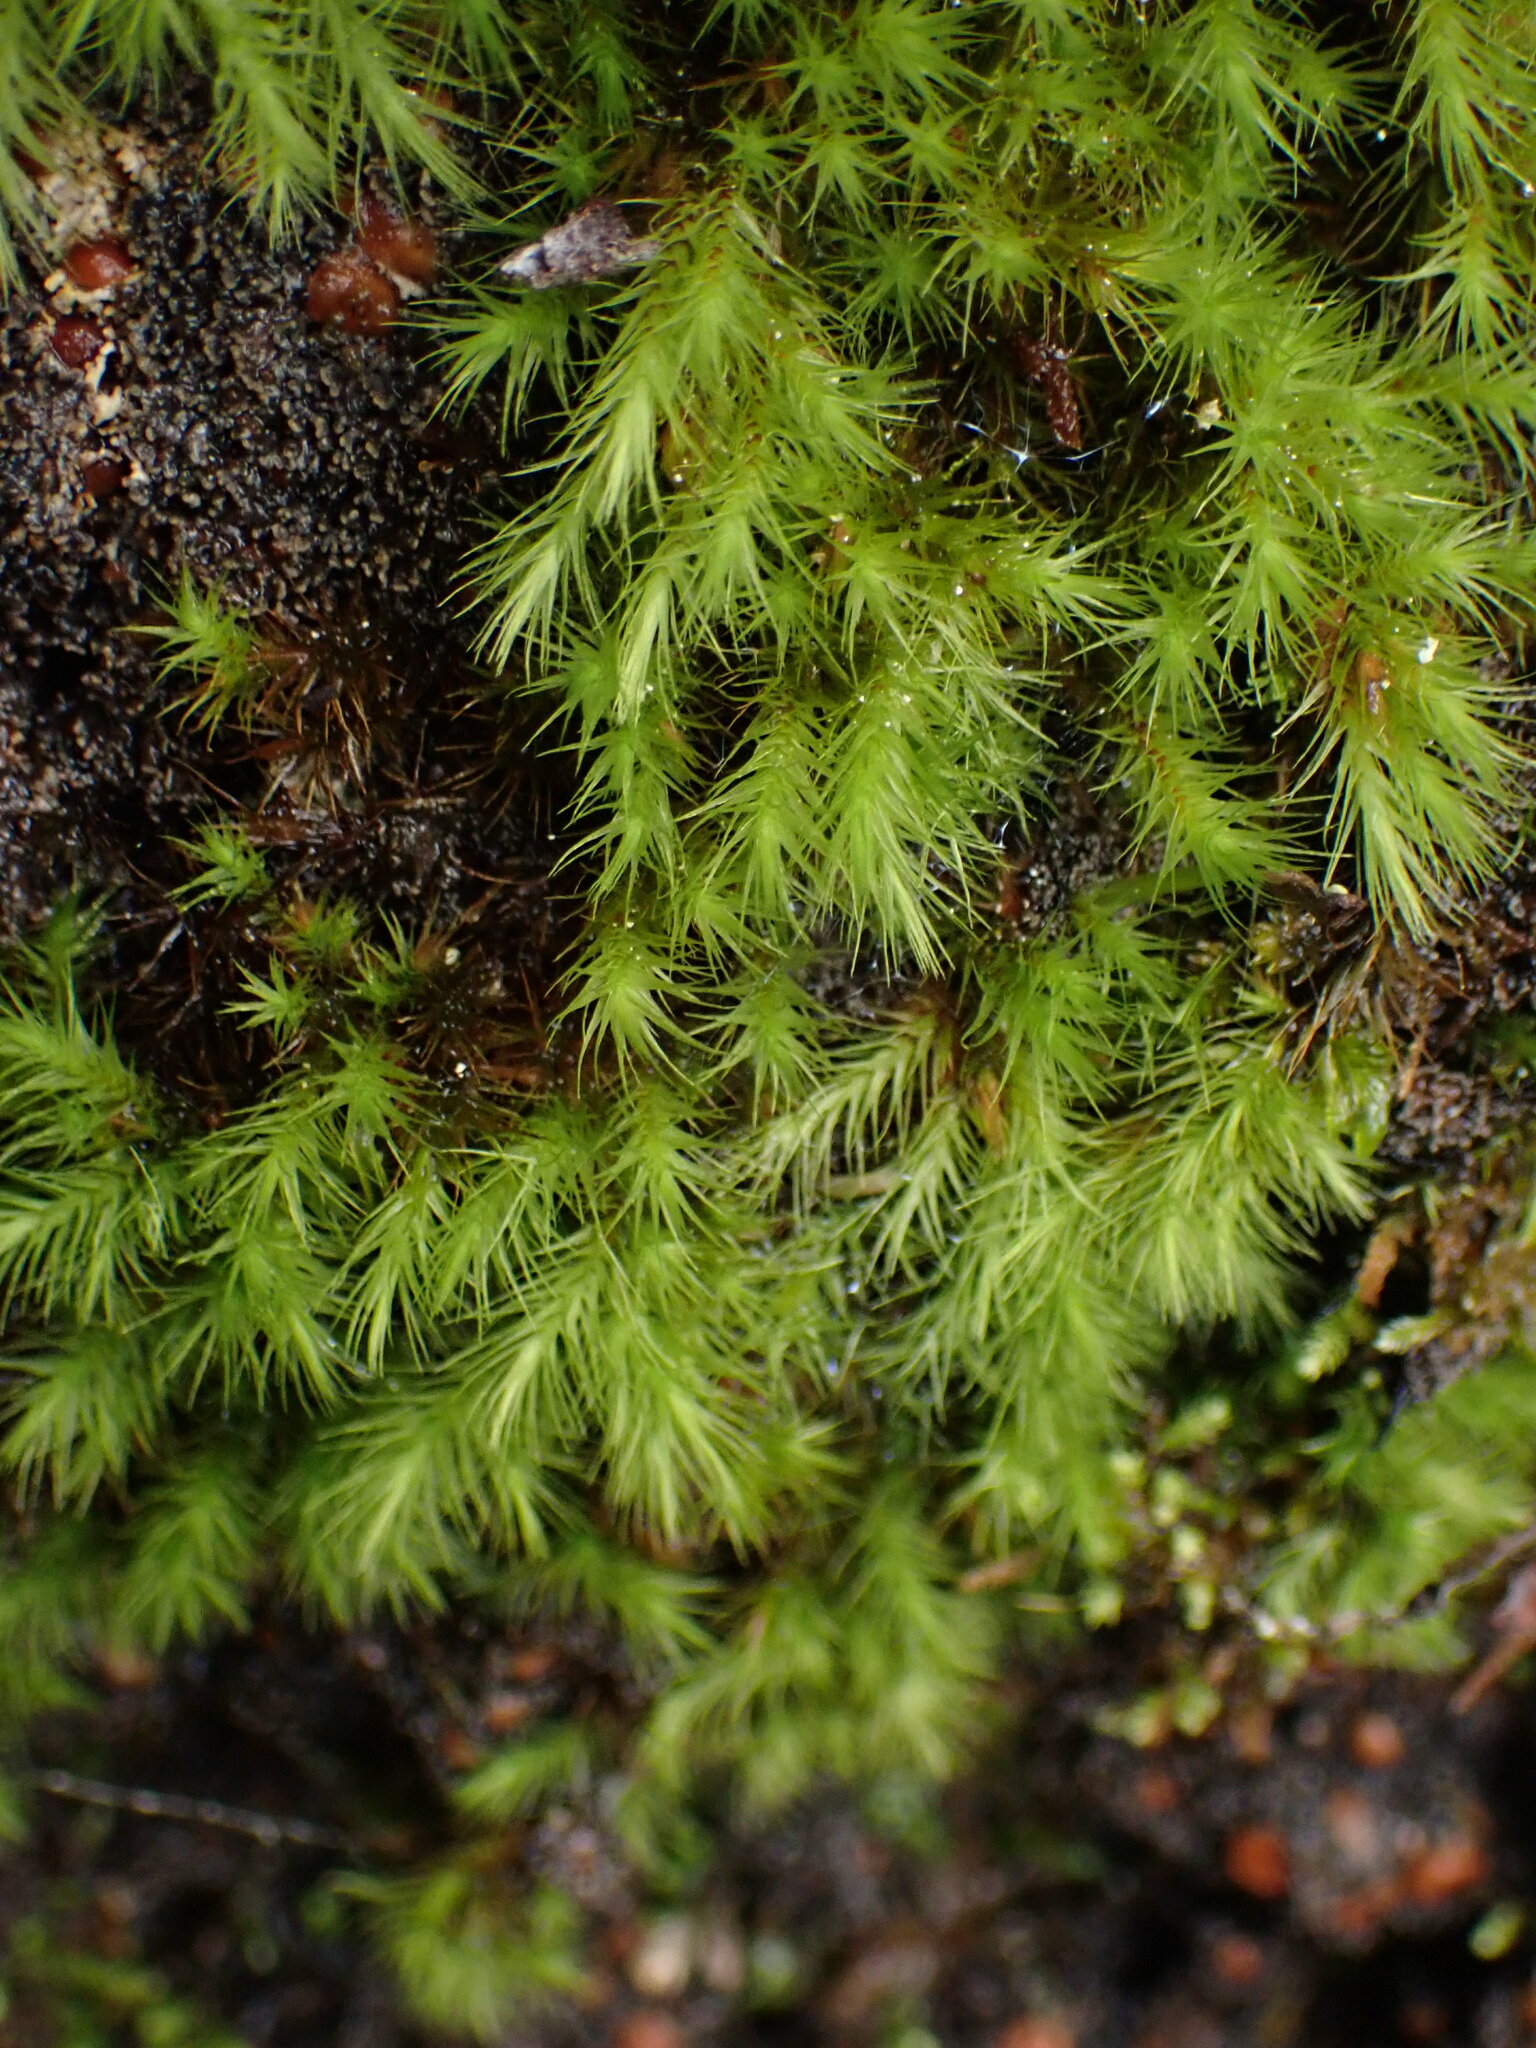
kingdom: Plantae
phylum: Bryophyta
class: Bryopsida
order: Bartramiales
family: Bartramiaceae
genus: Anacolia
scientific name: Anacolia menziesii
